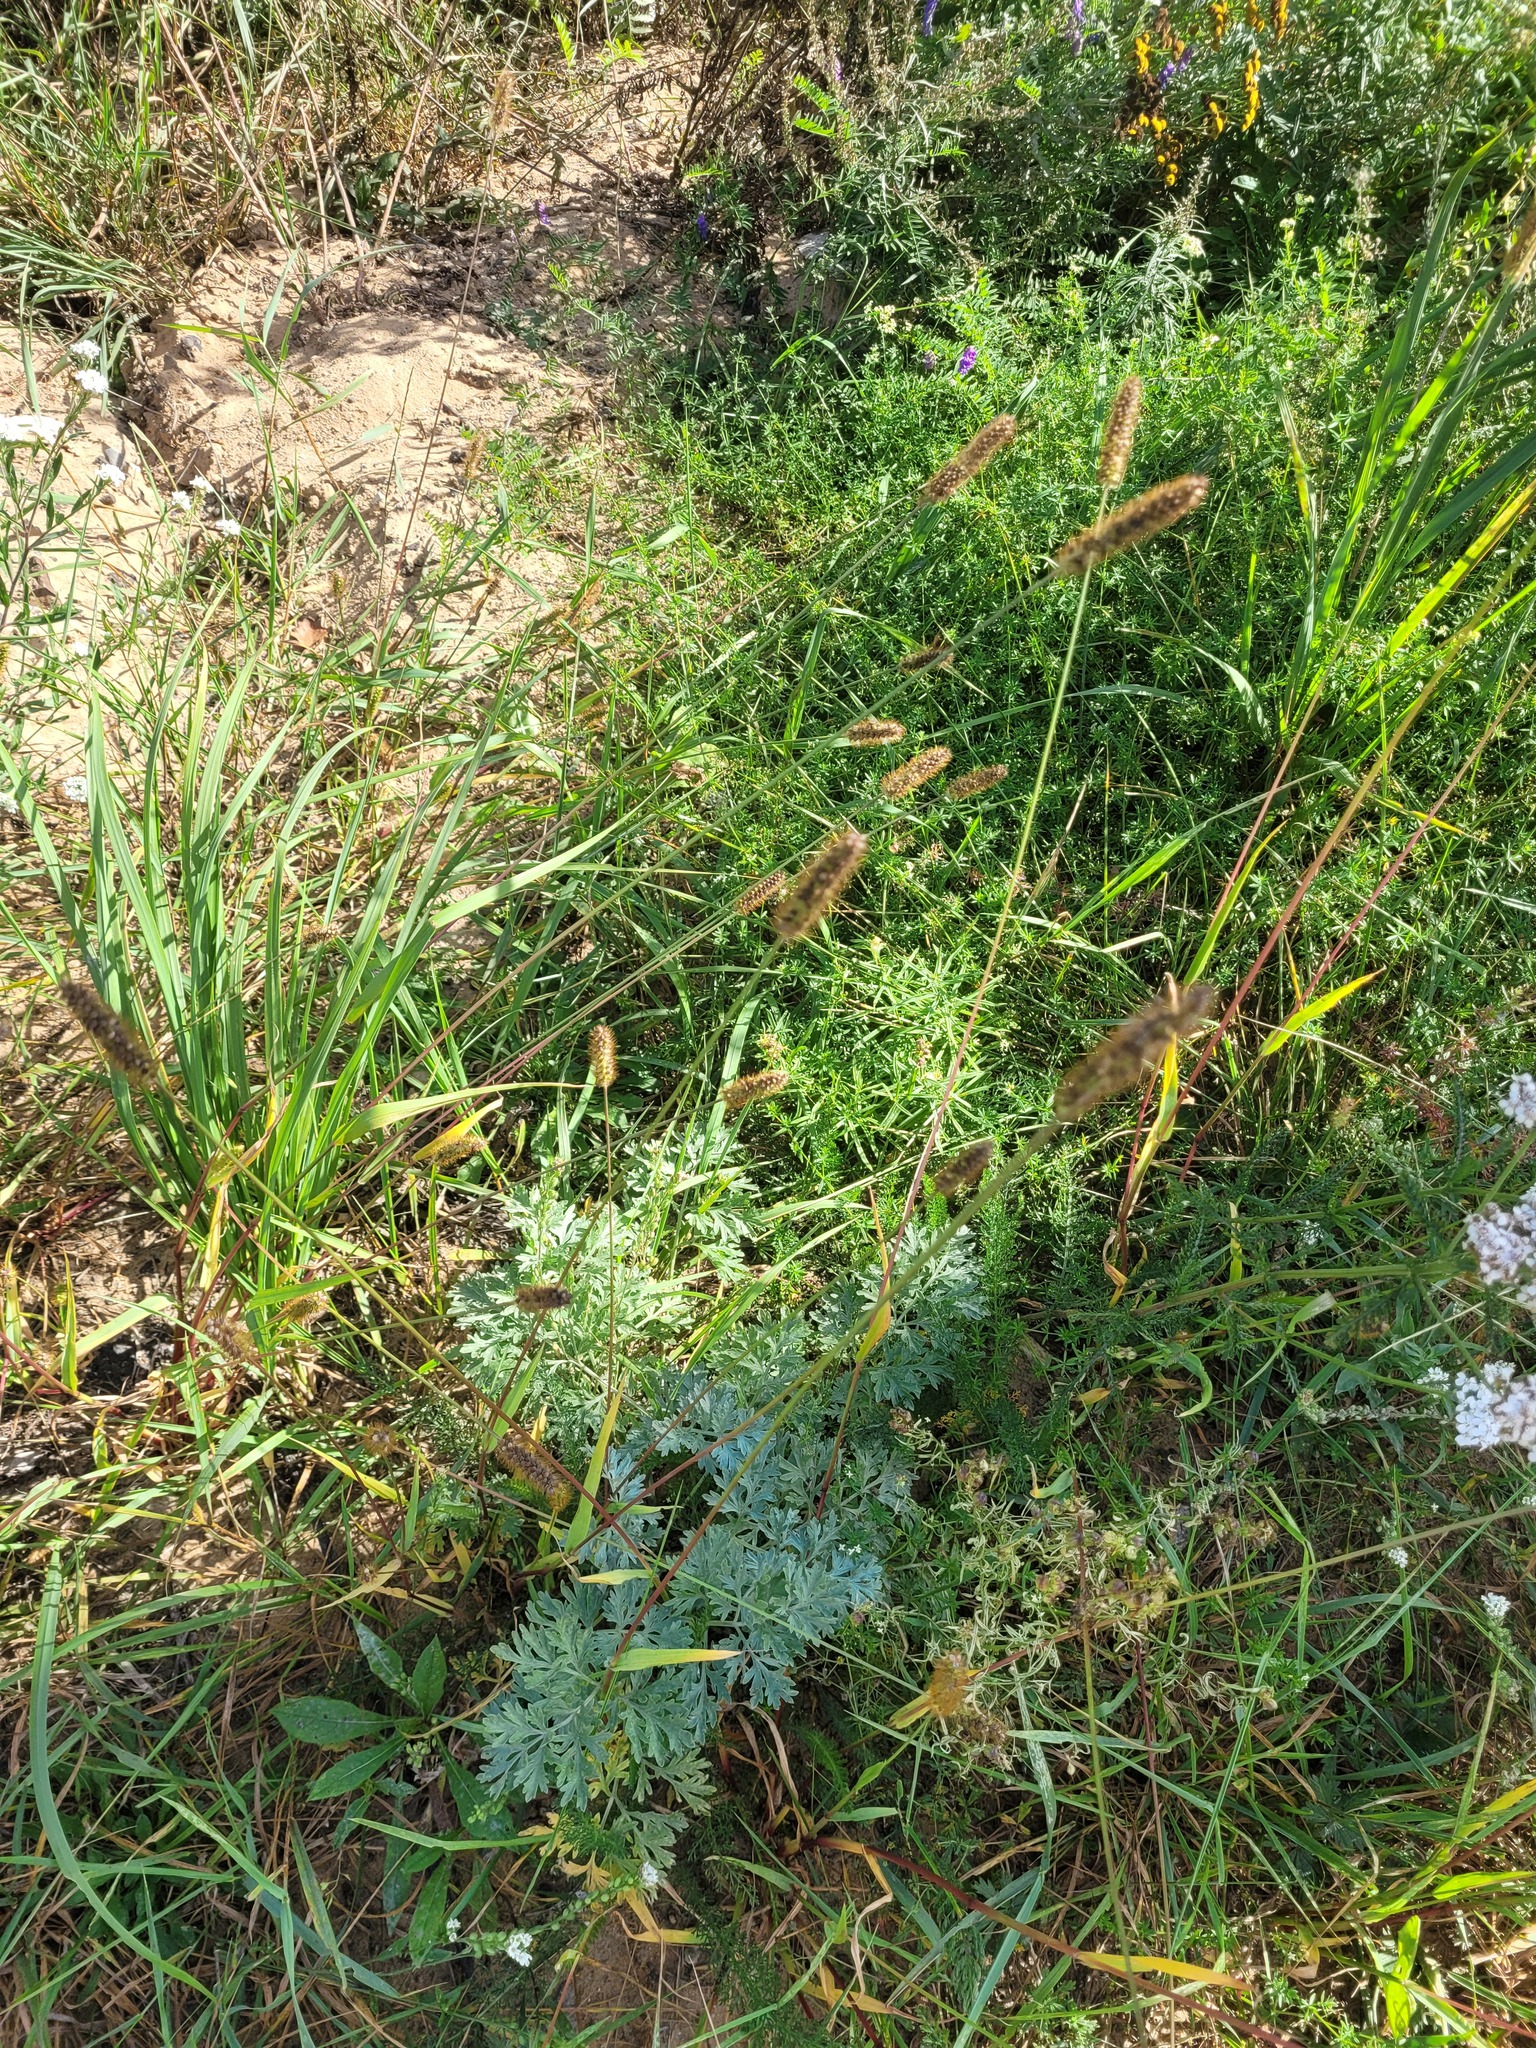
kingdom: Plantae
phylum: Tracheophyta
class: Liliopsida
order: Poales
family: Poaceae
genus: Setaria
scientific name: Setaria pumila
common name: Yellow bristle-grass
